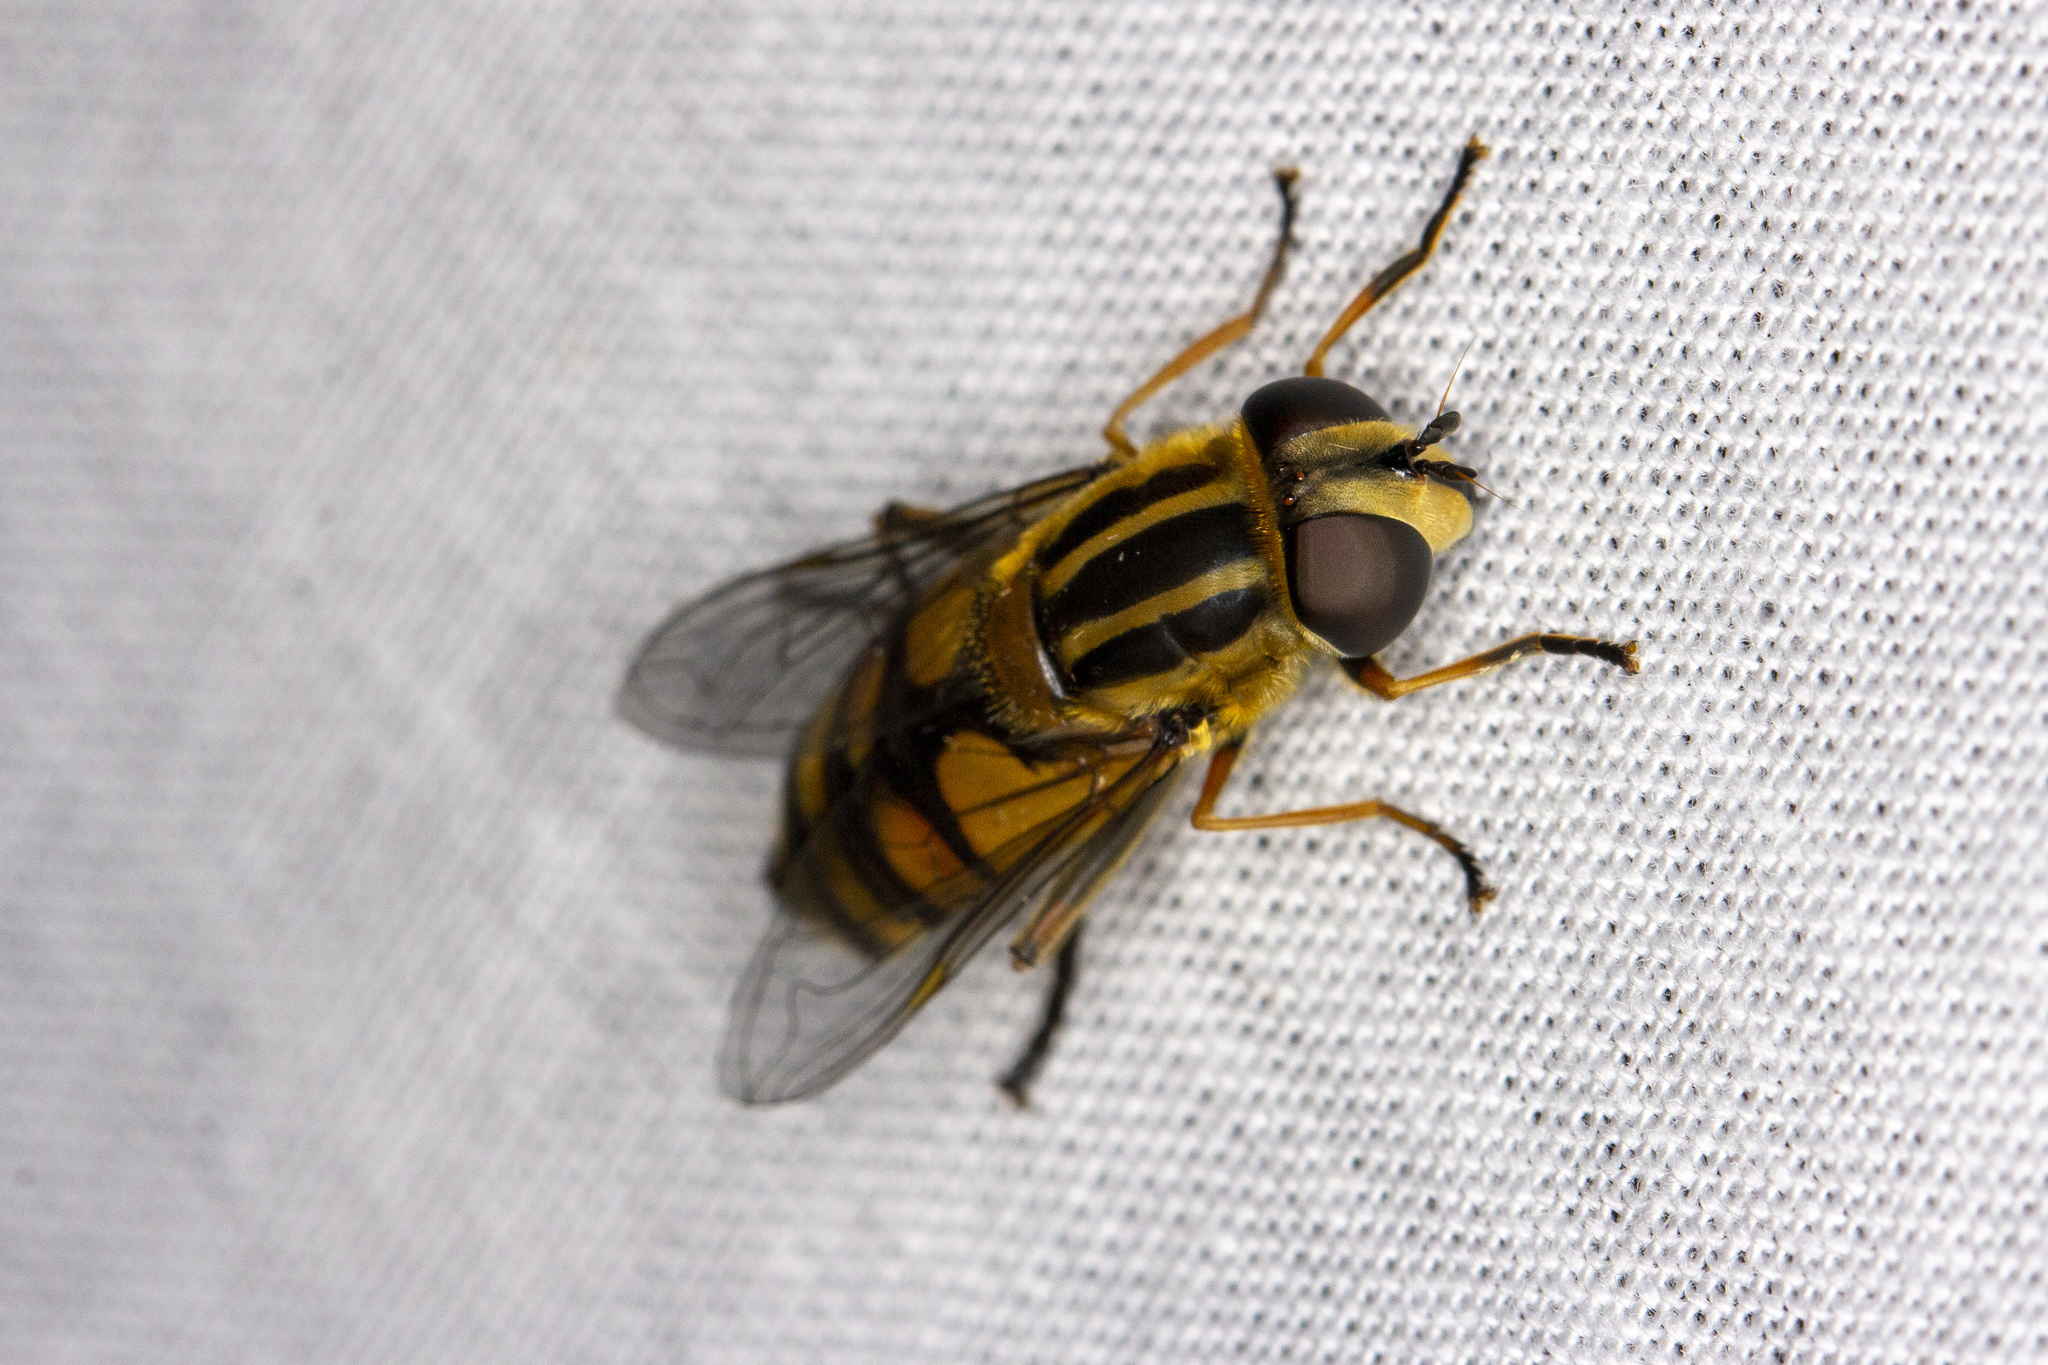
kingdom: Animalia
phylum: Arthropoda
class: Insecta
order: Diptera
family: Syrphidae
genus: Helophilus
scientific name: Helophilus hybridus
